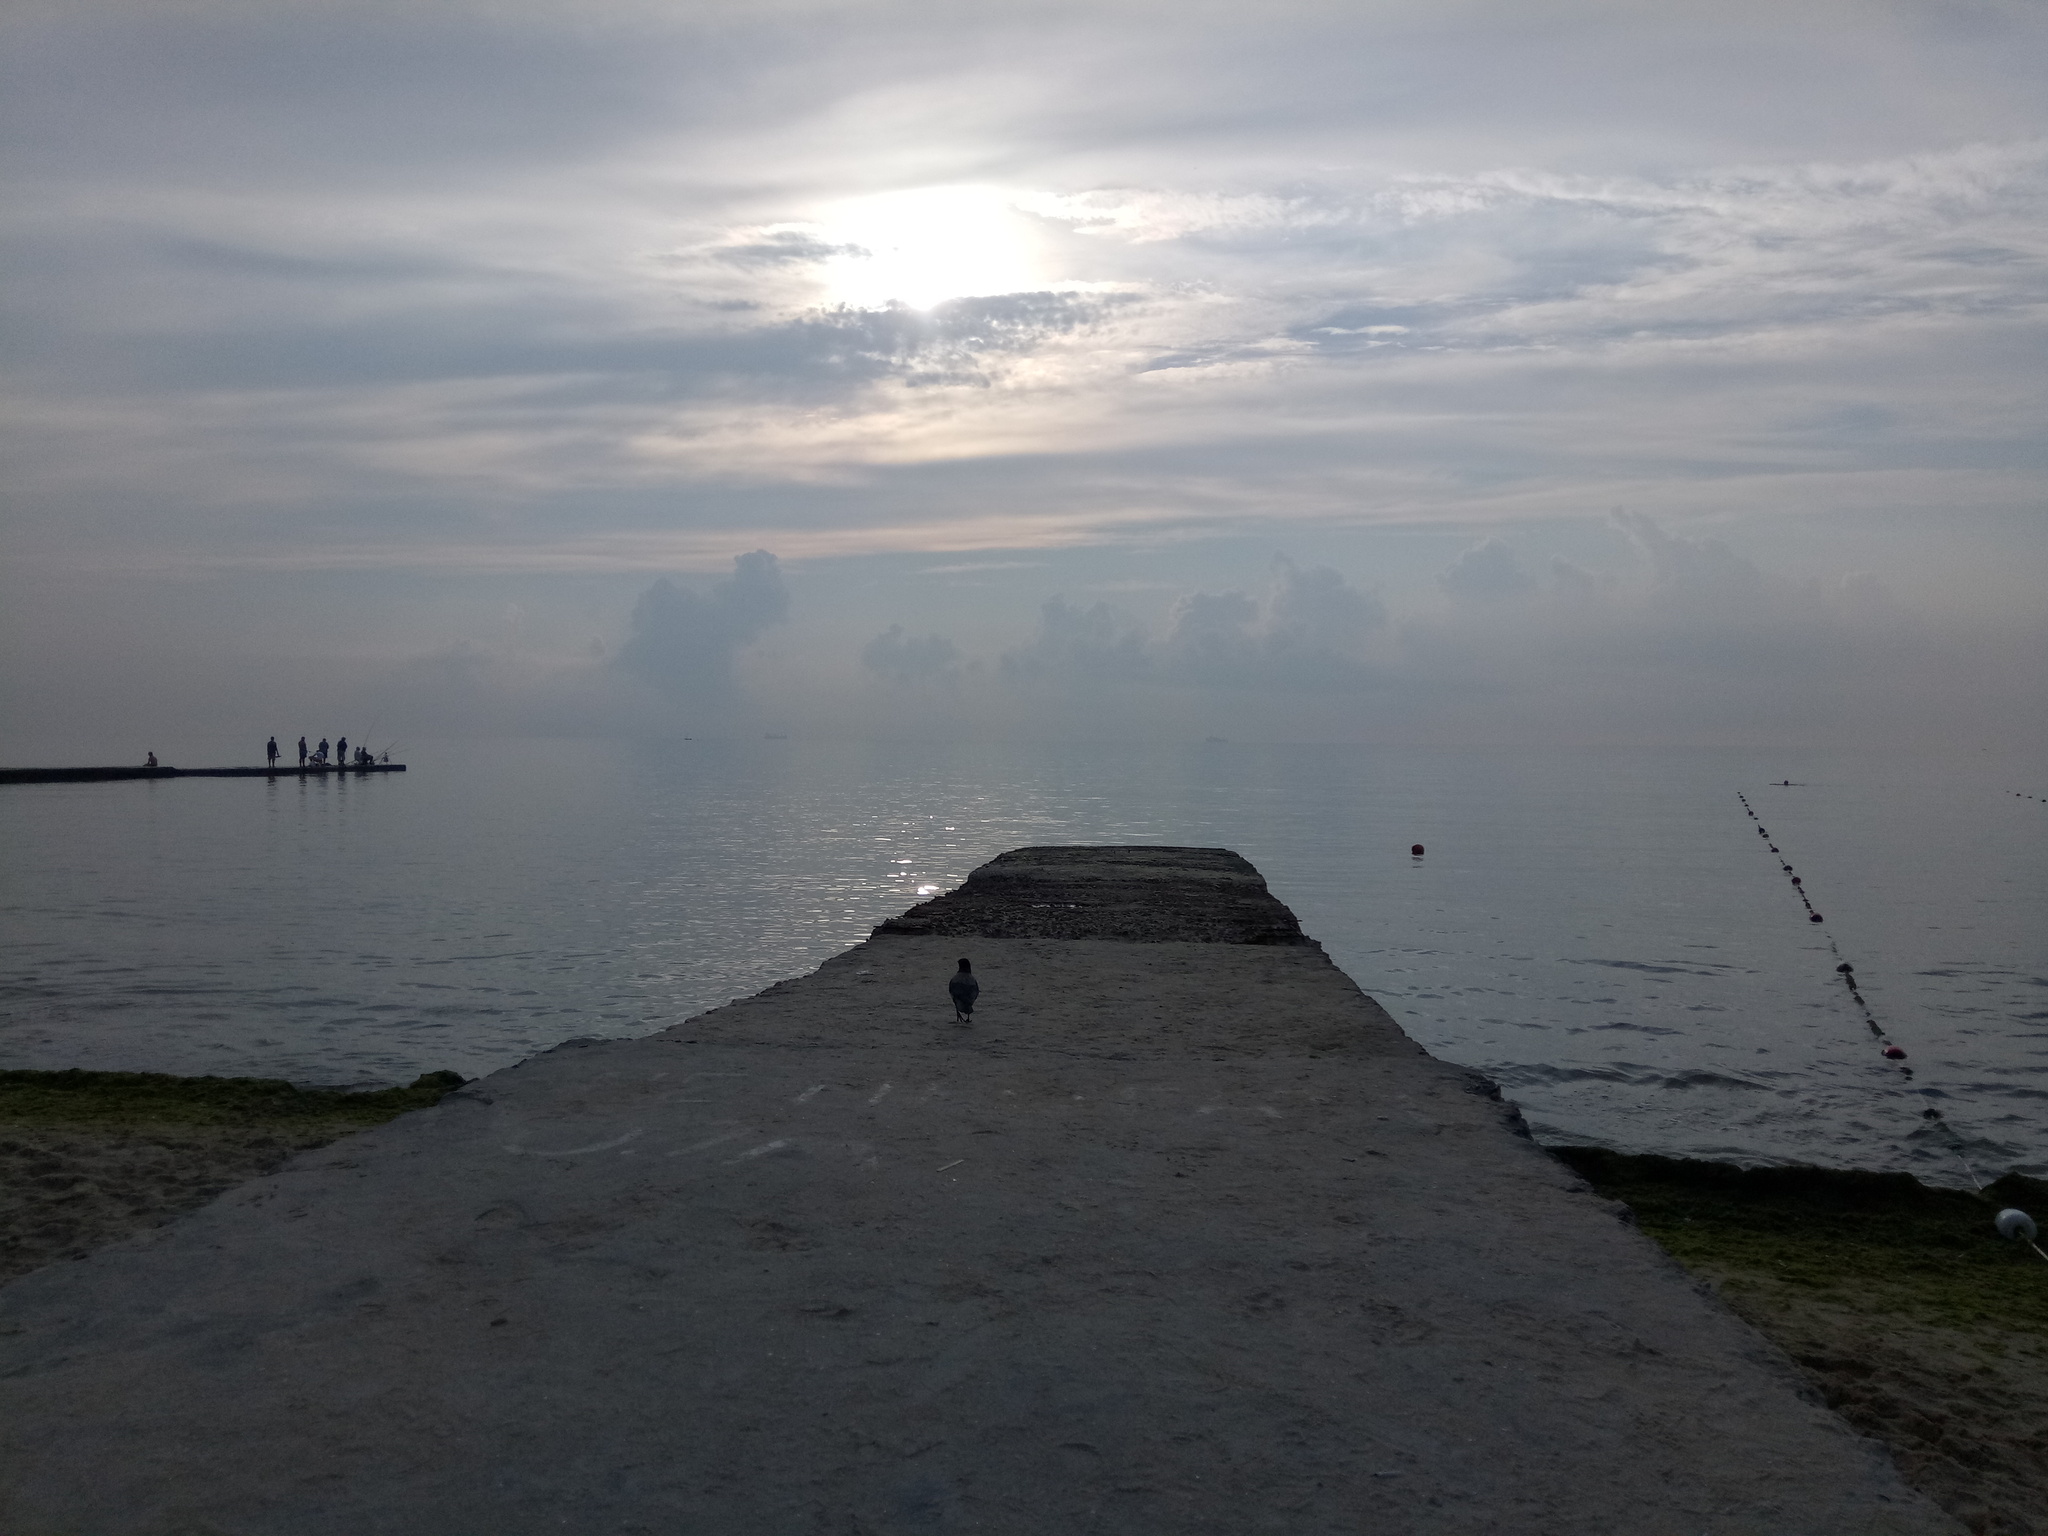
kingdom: Animalia
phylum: Chordata
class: Aves
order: Passeriformes
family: Corvidae
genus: Corvus
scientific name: Corvus cornix
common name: Hooded crow
